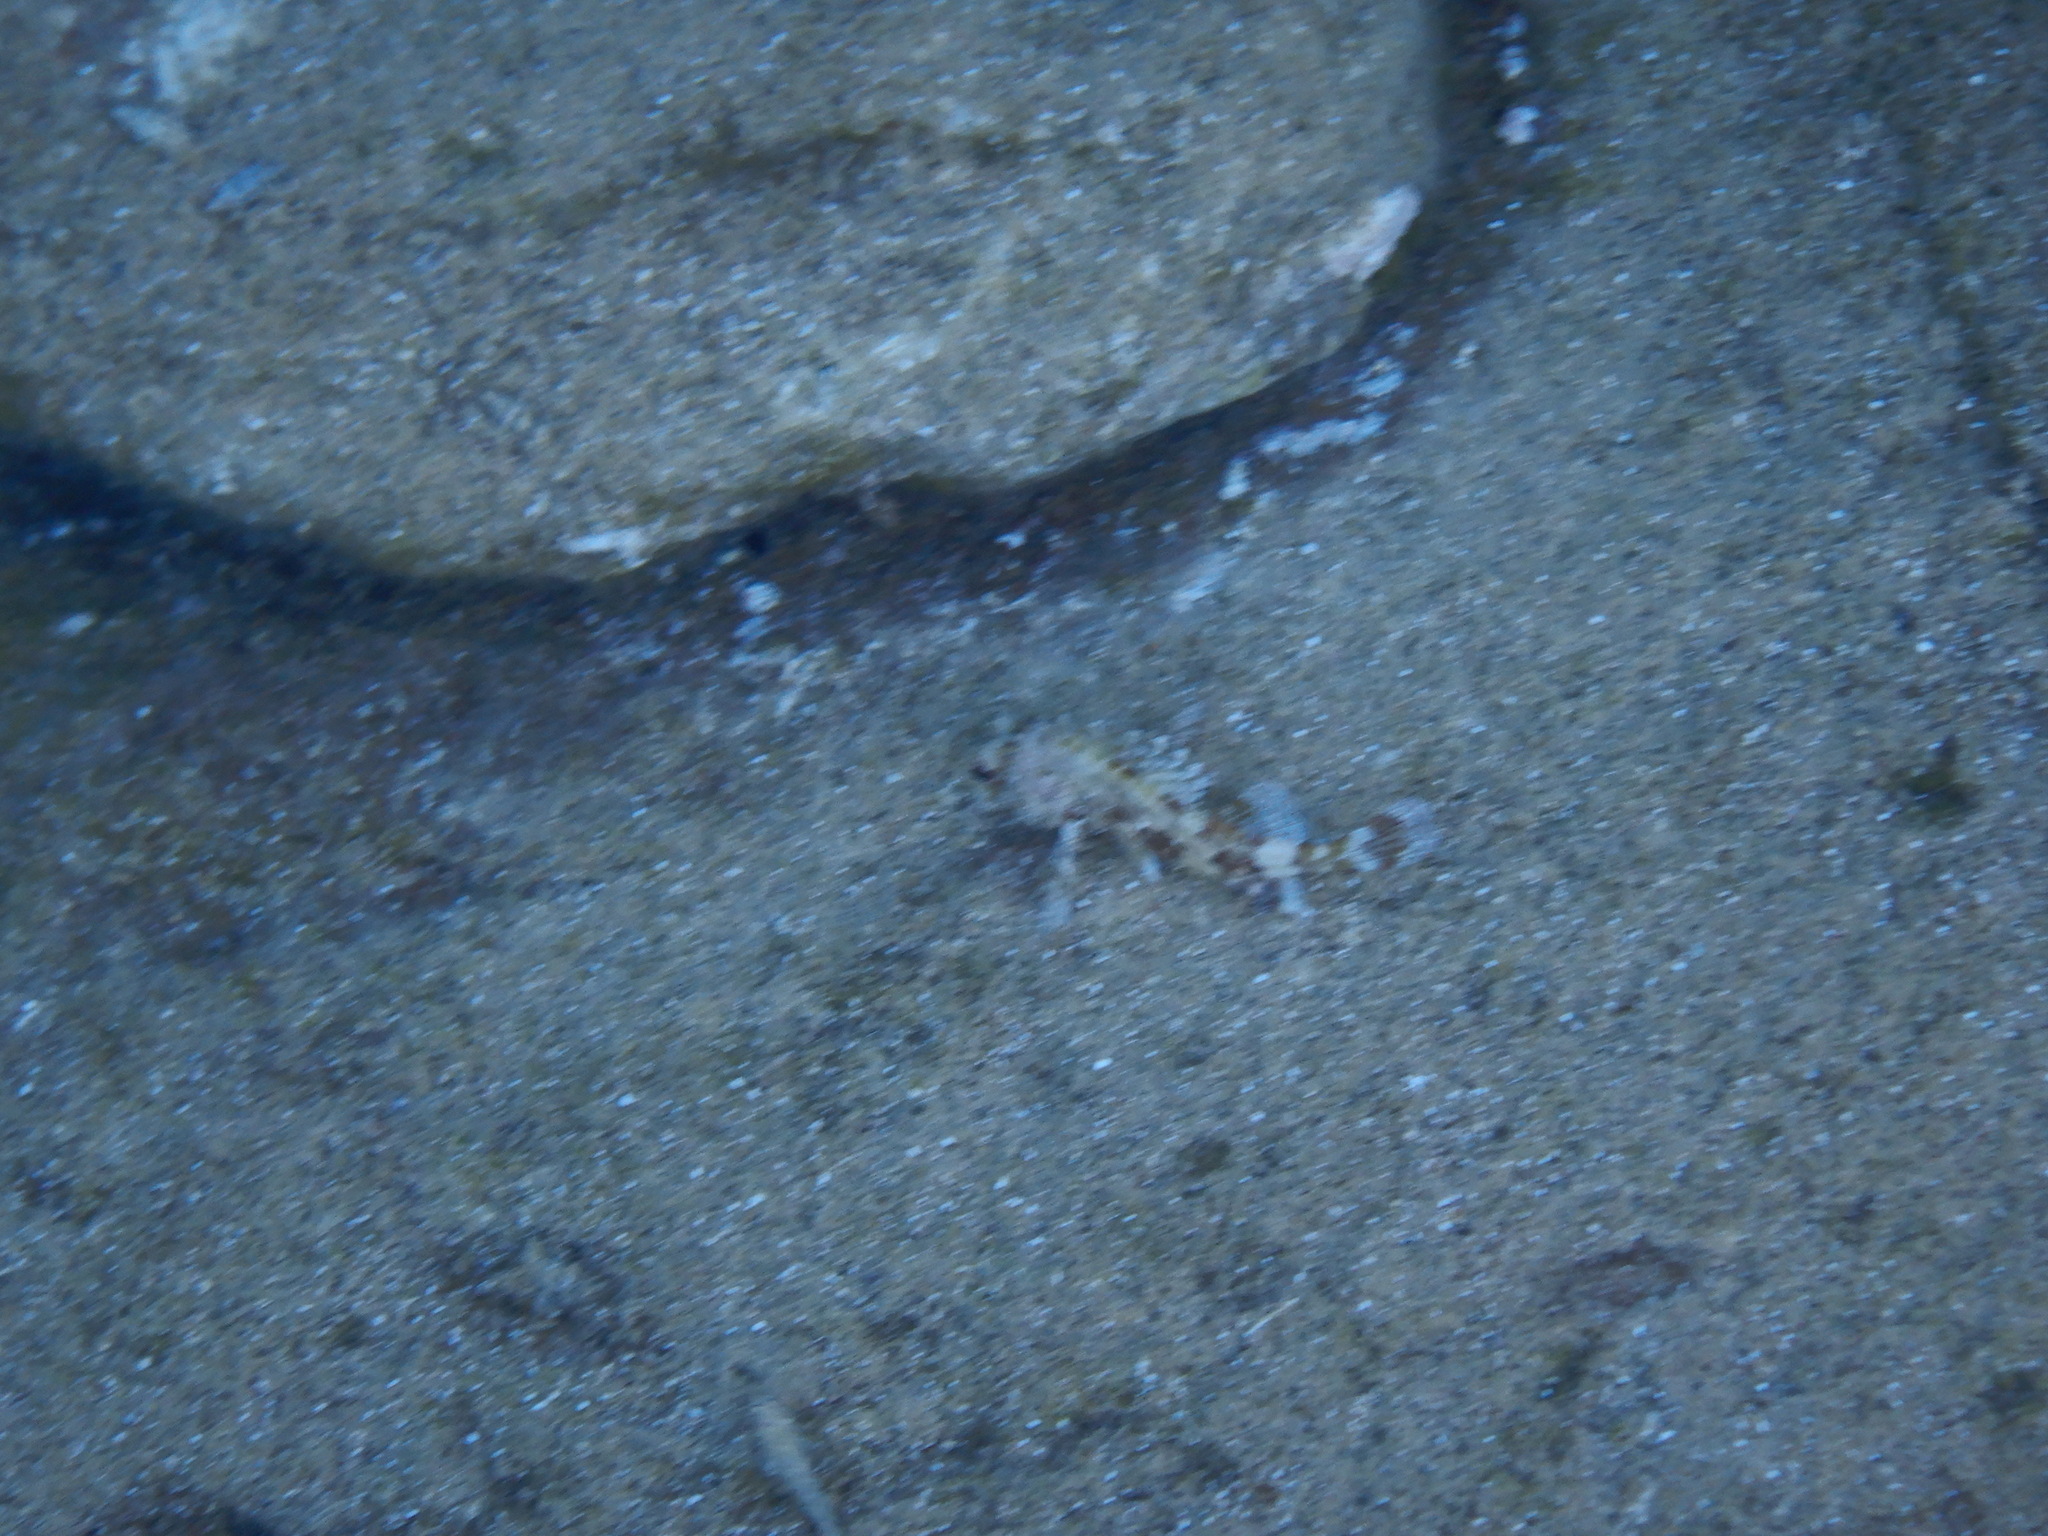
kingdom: Animalia
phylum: Chordata
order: Scorpaeniformes
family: Scorpaenidae
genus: Scorpaena
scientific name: Scorpaena maderensis
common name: Madeira rockfish
